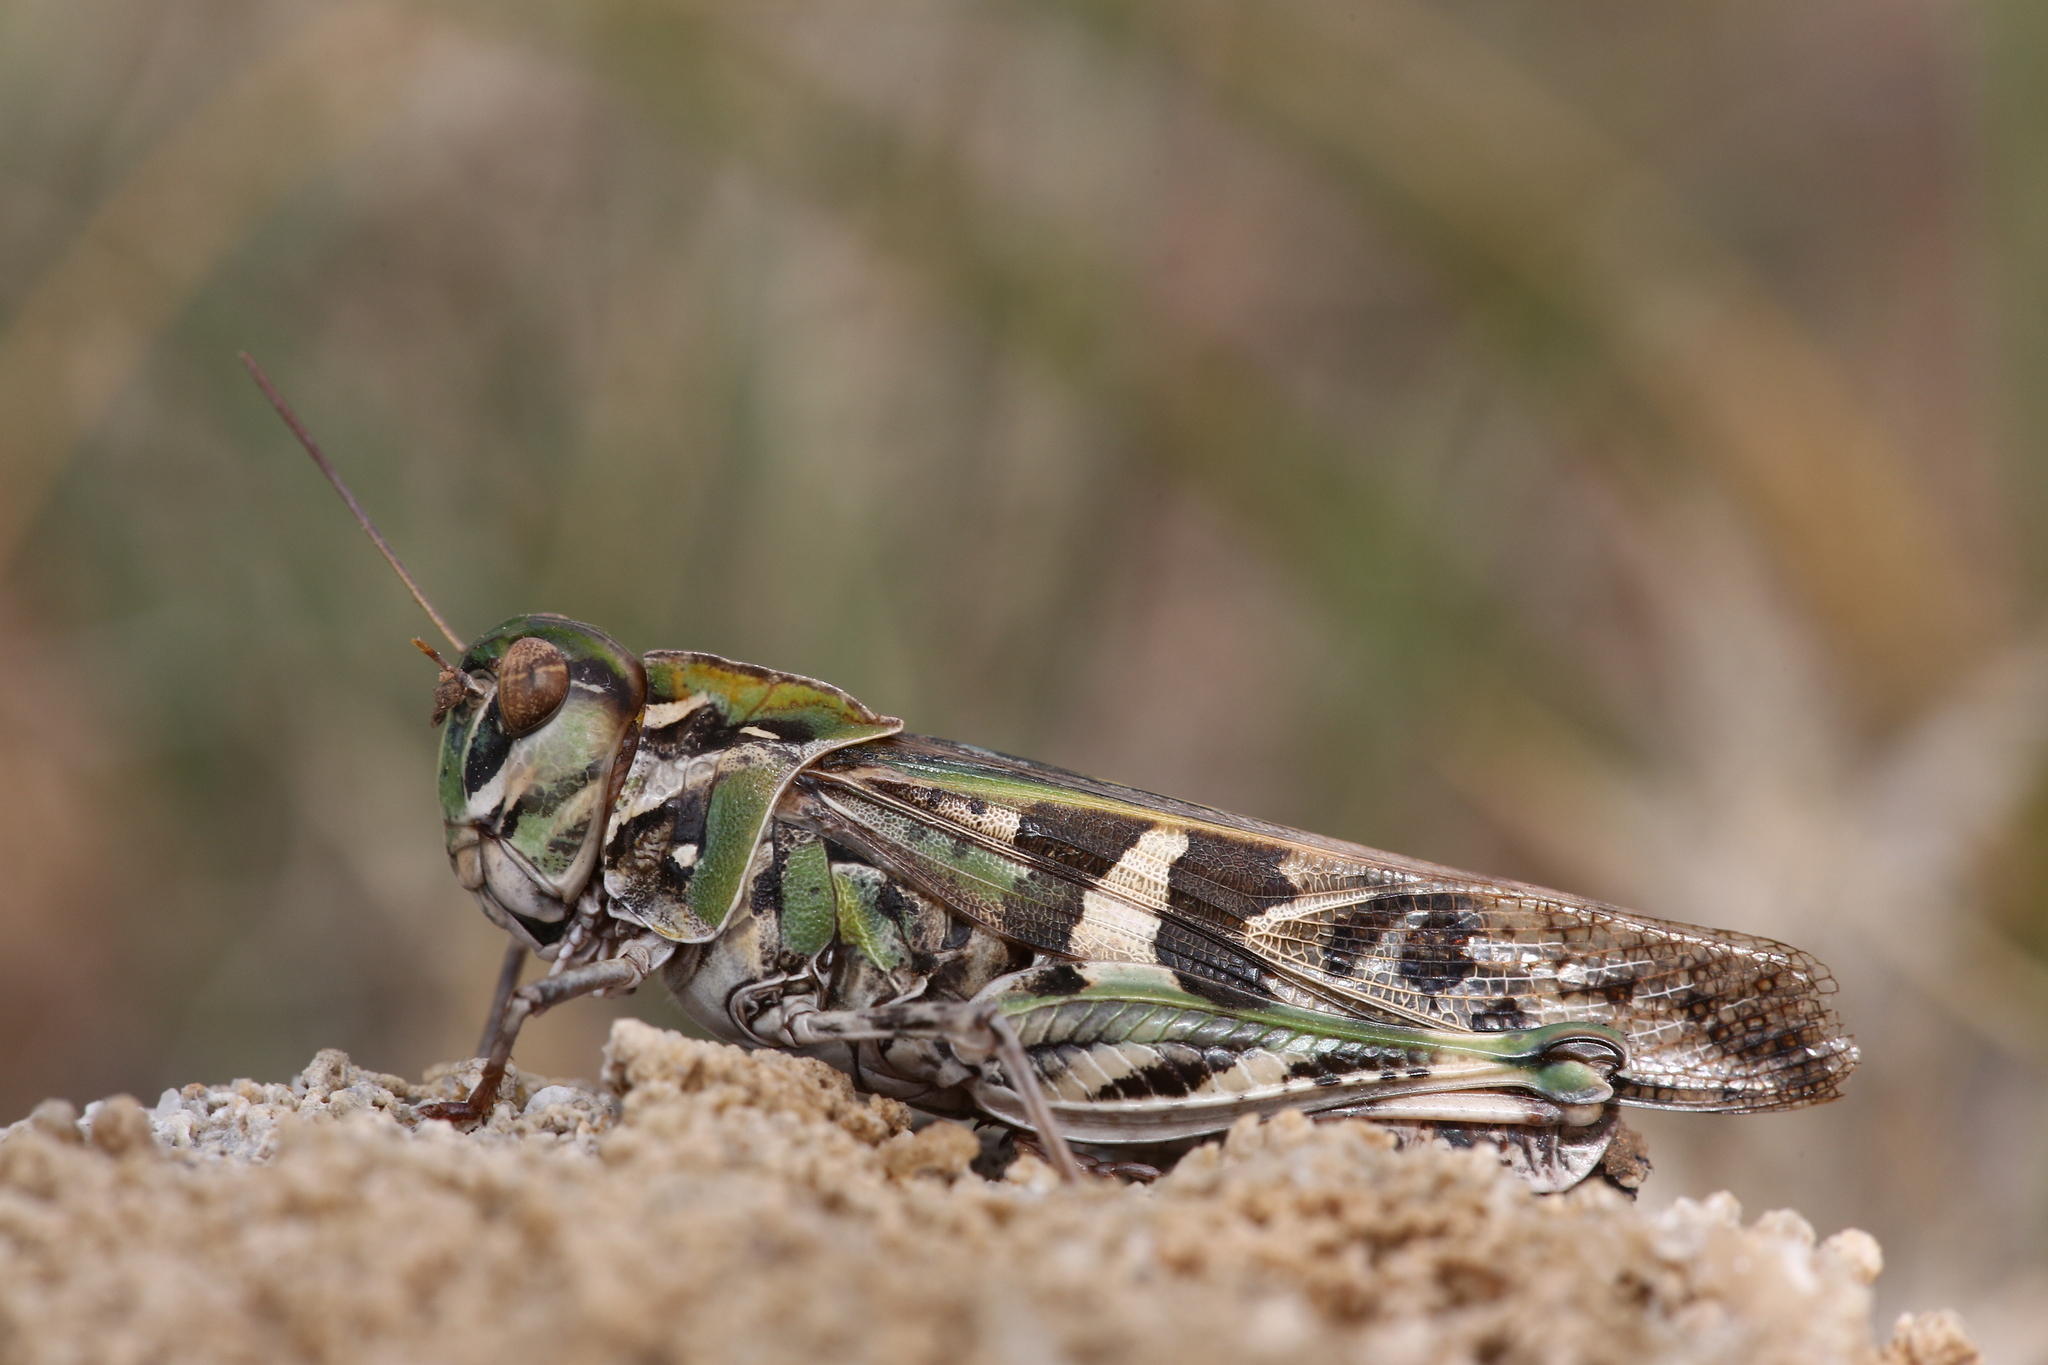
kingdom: Animalia
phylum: Arthropoda
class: Insecta
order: Orthoptera
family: Acrididae
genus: Oedaleus
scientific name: Oedaleus decorus
